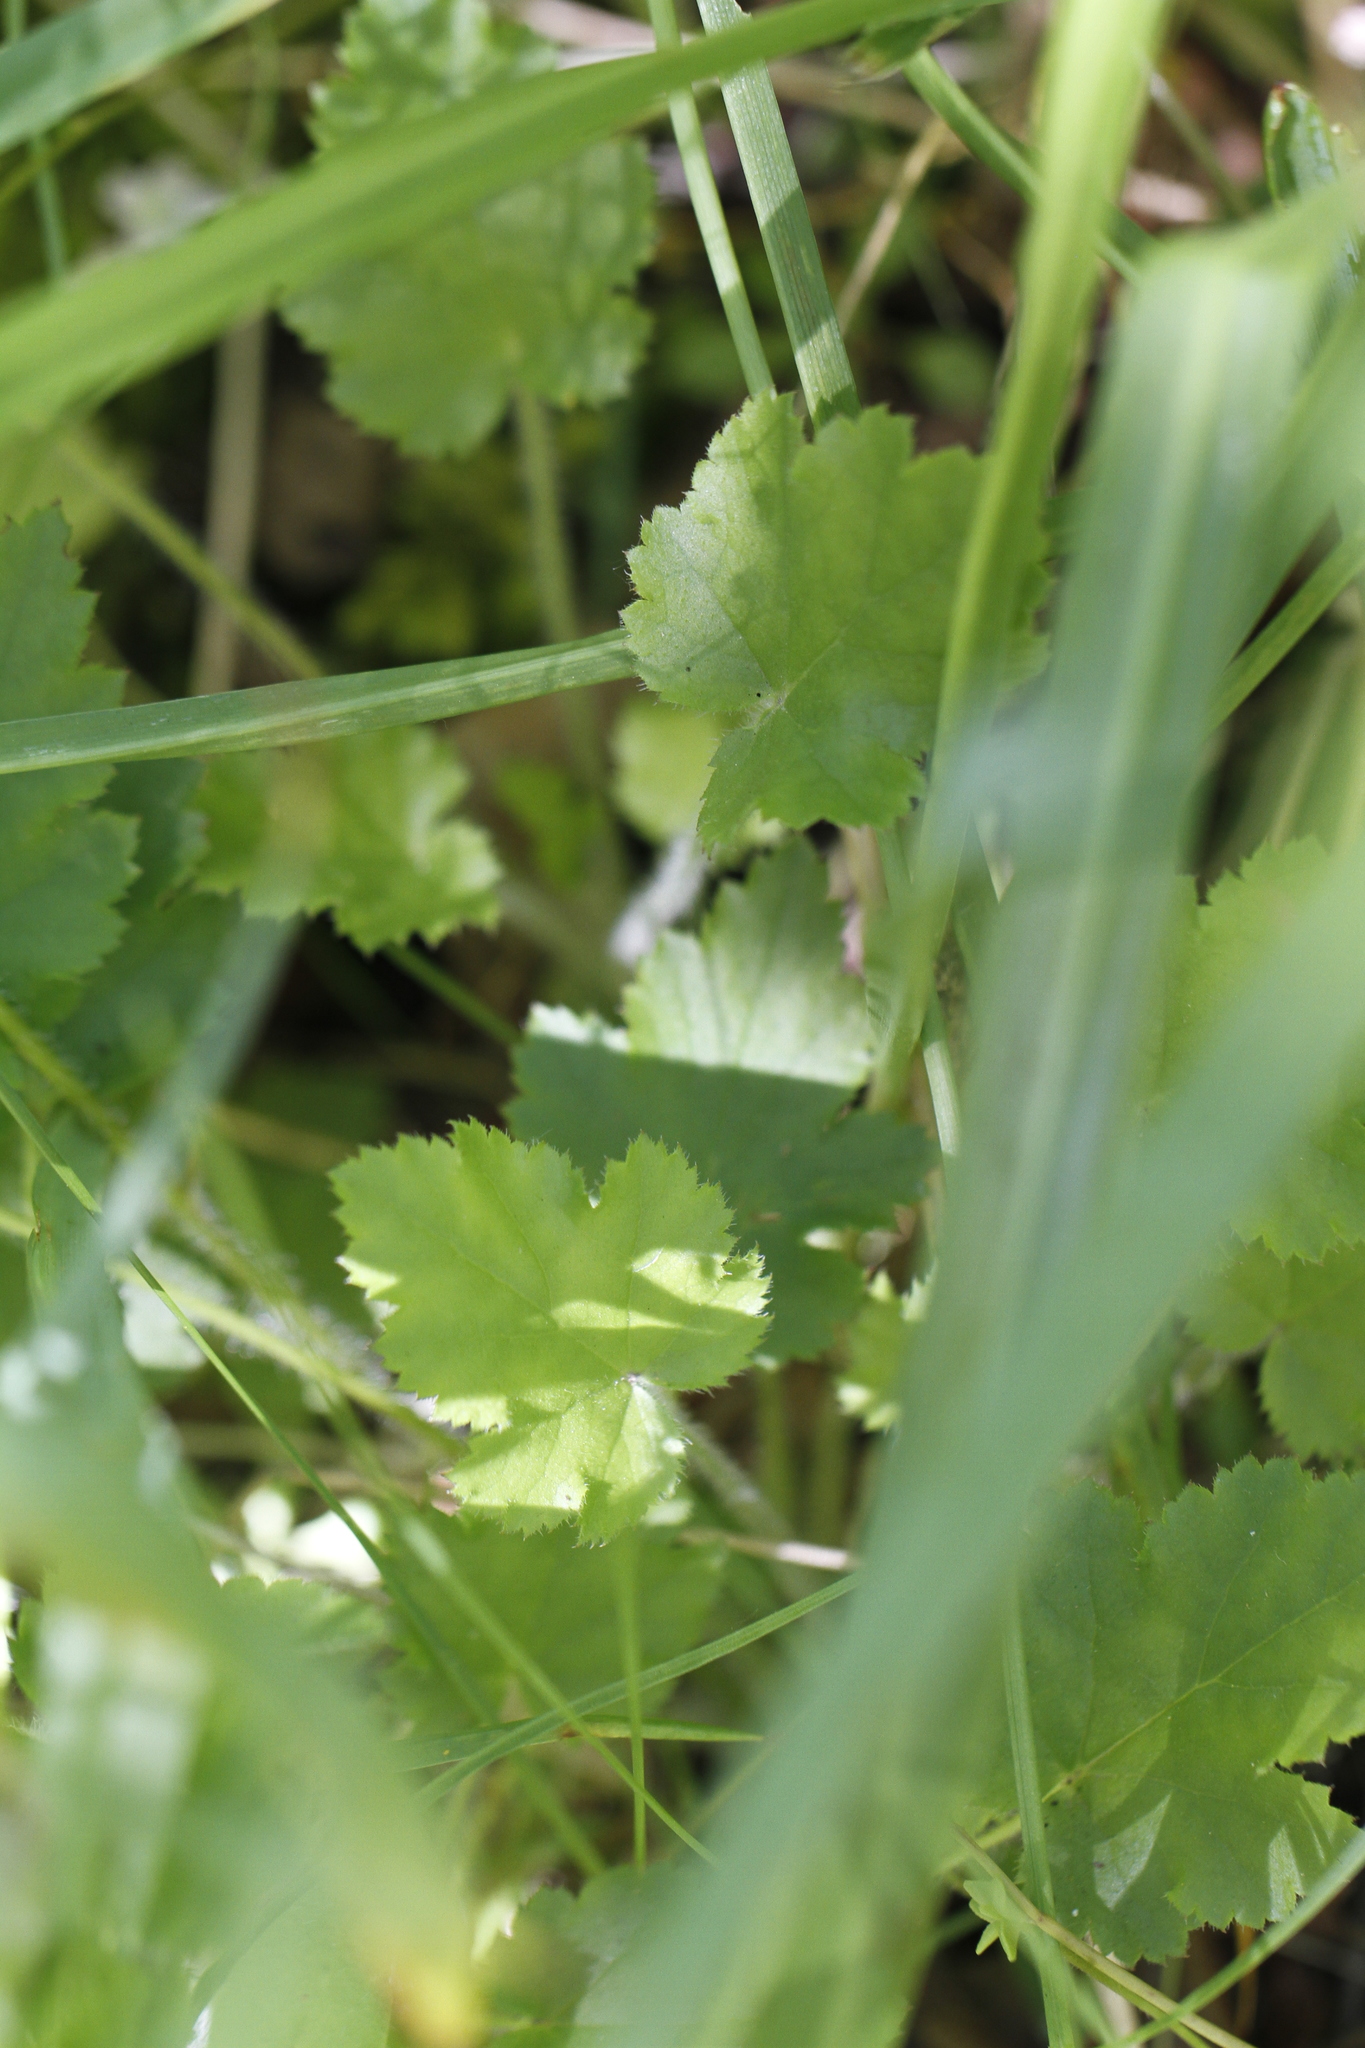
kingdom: Plantae
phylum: Tracheophyta
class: Magnoliopsida
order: Saxifragales
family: Saxifragaceae
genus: Heuchera
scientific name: Heuchera micrantha
